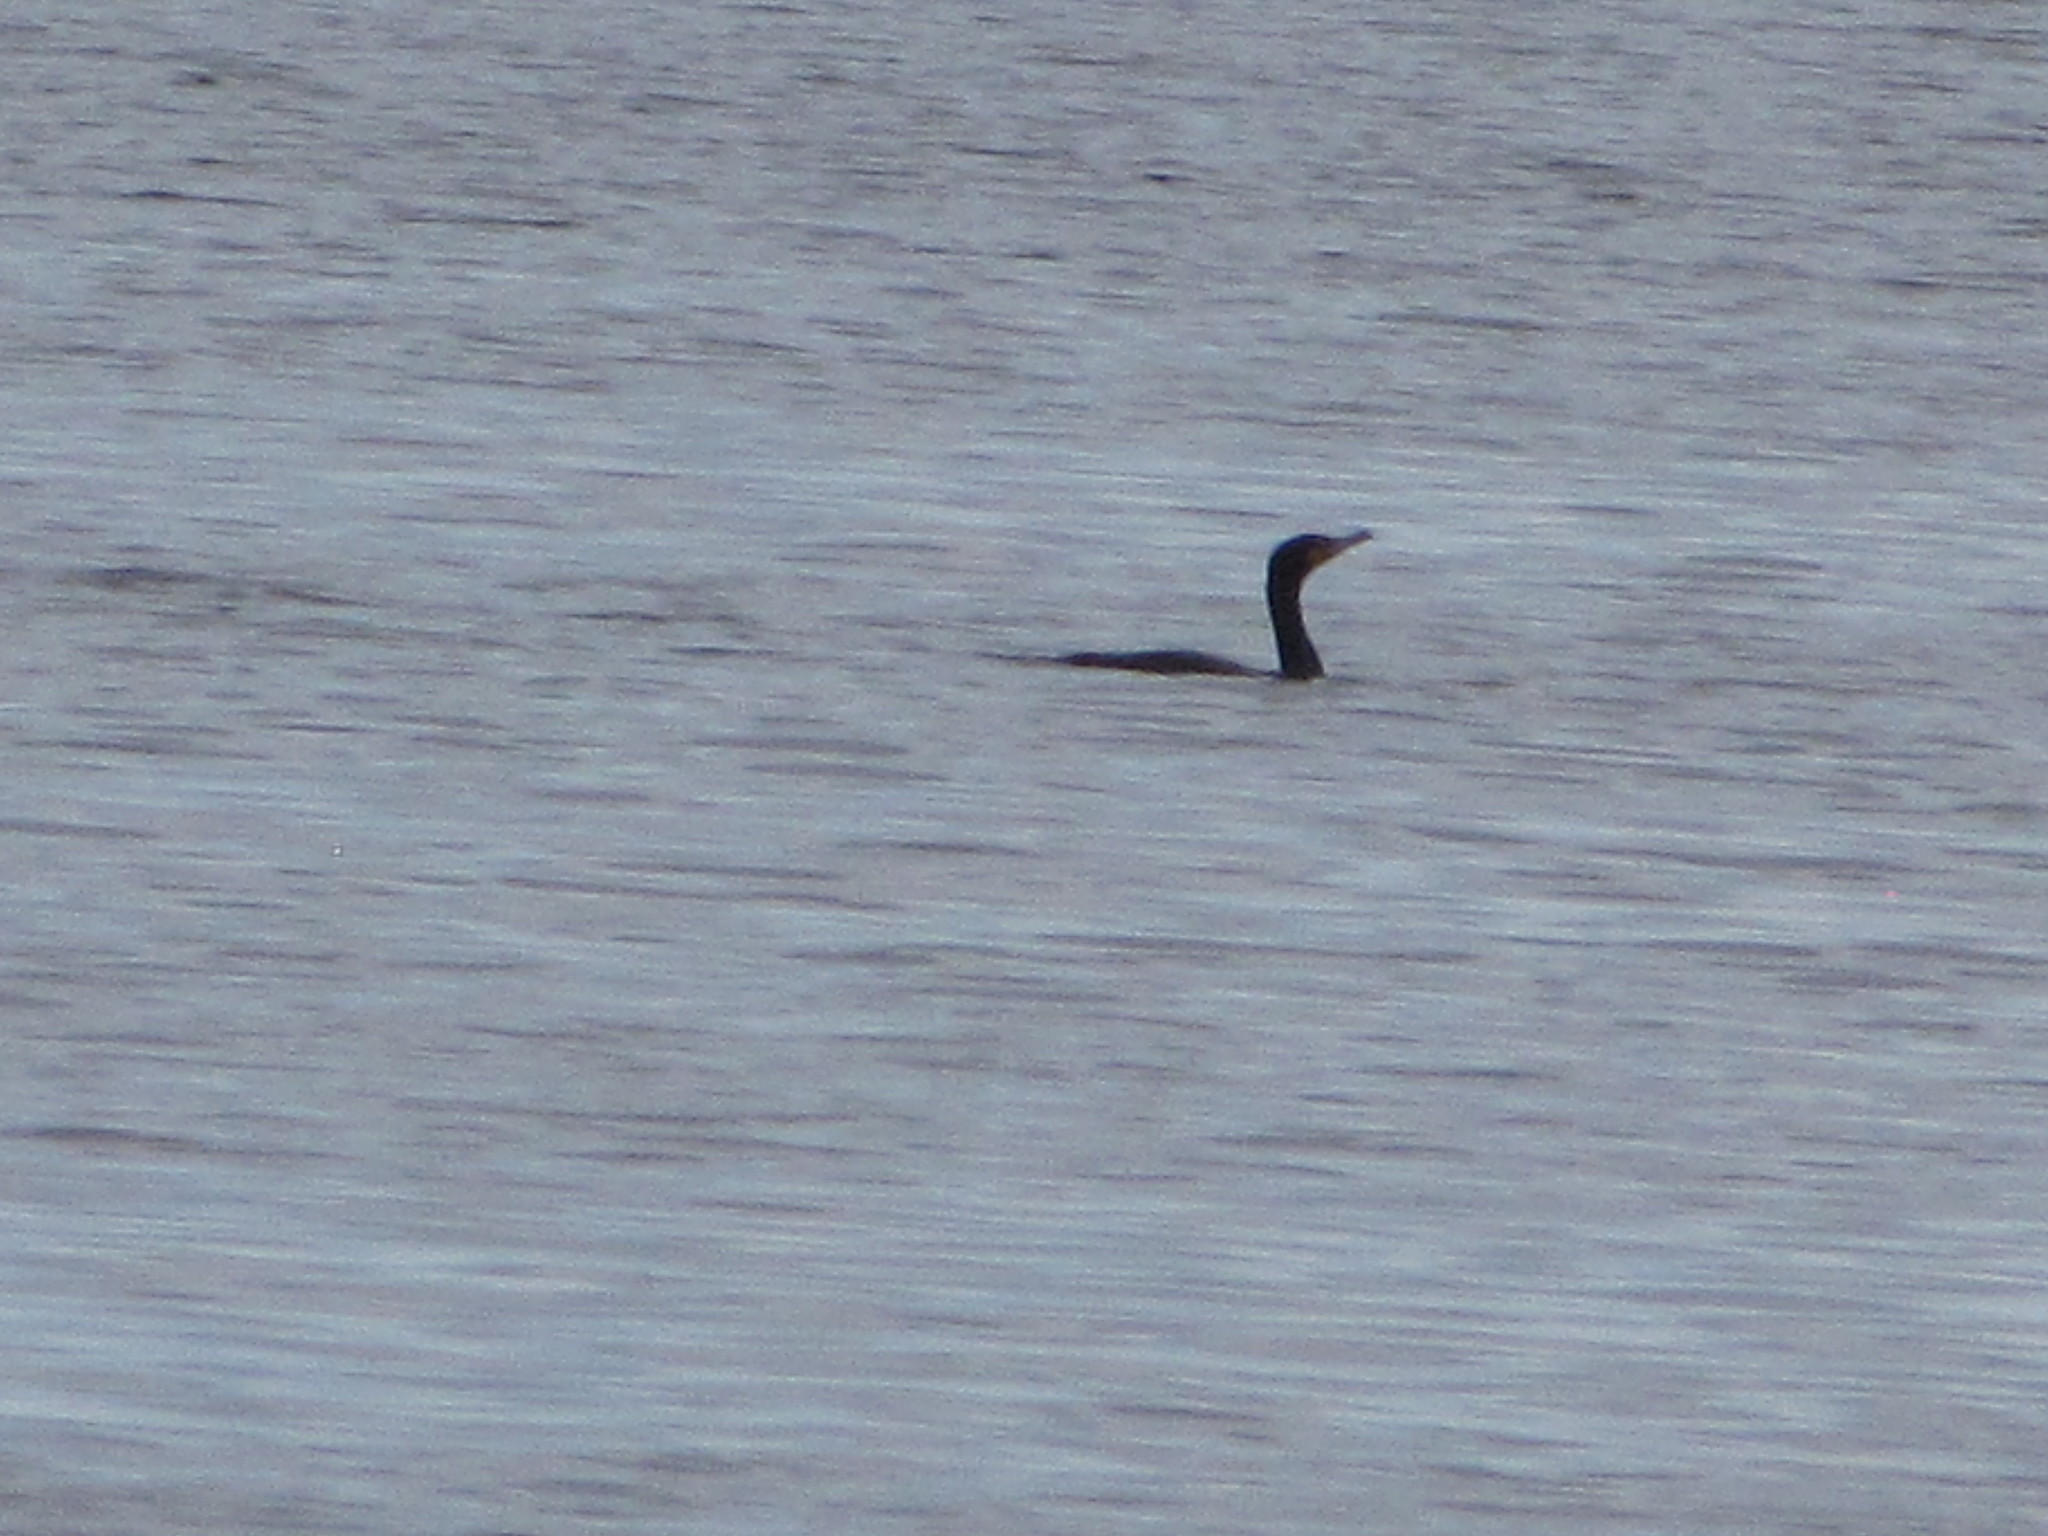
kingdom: Animalia
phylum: Chordata
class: Aves
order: Suliformes
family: Phalacrocoracidae
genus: Phalacrocorax
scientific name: Phalacrocorax auritus
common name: Double-crested cormorant
